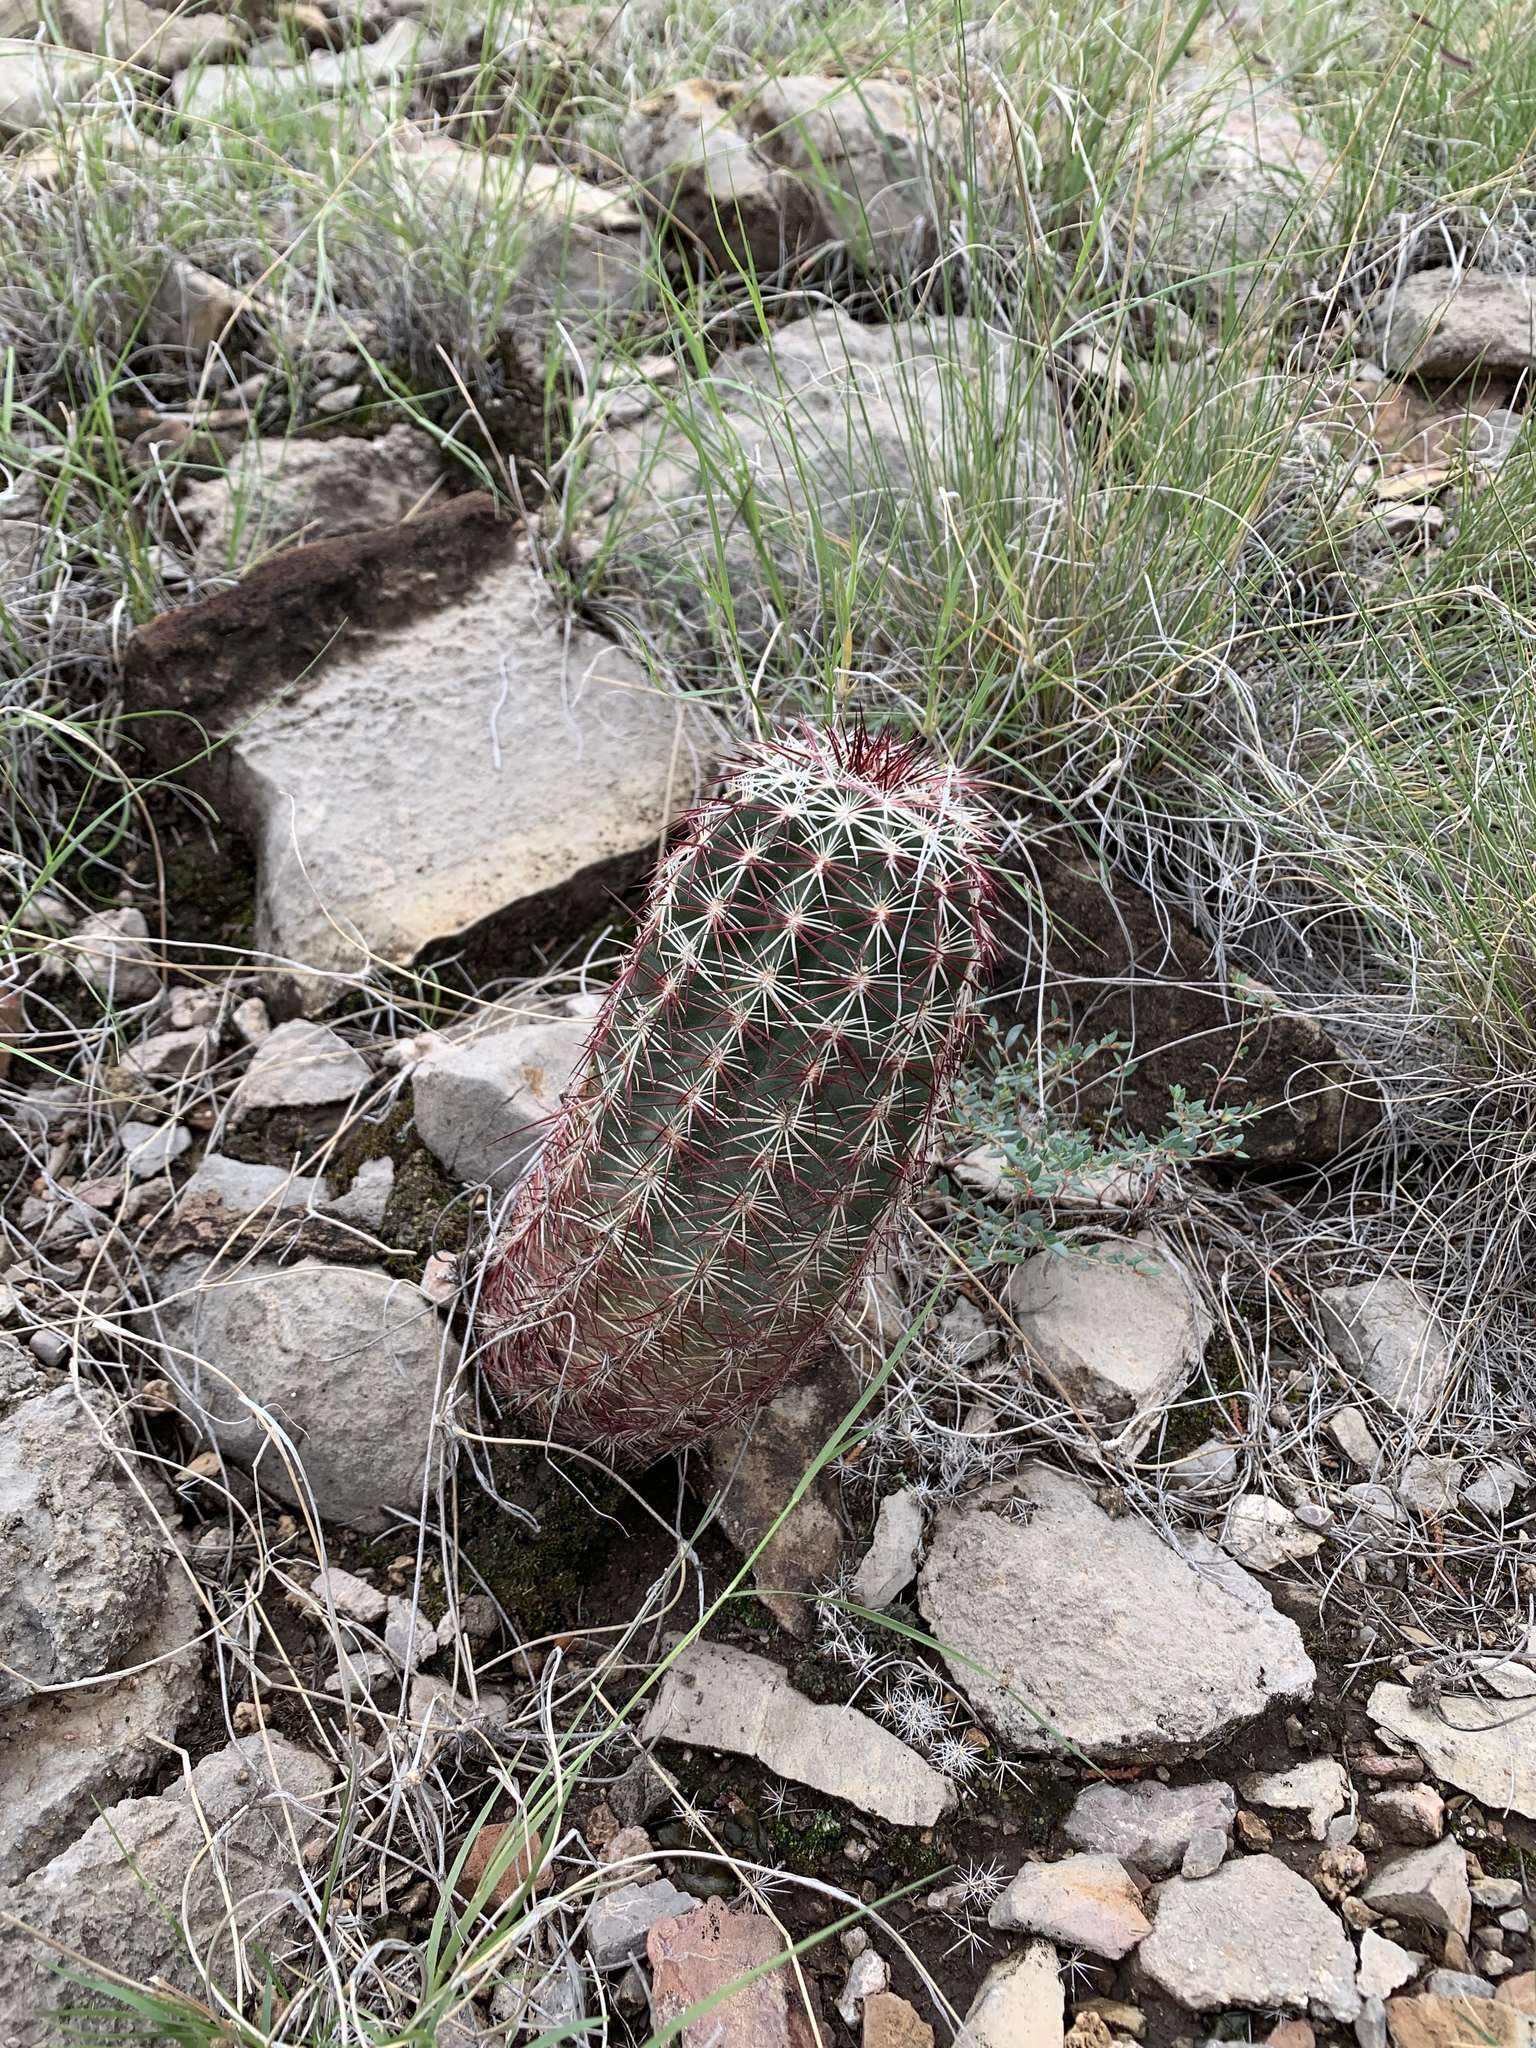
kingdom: Plantae
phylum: Tracheophyta
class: Magnoliopsida
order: Caryophyllales
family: Cactaceae
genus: Echinocereus
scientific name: Echinocereus viridiflorus
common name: Nylon hedgehog cactus
